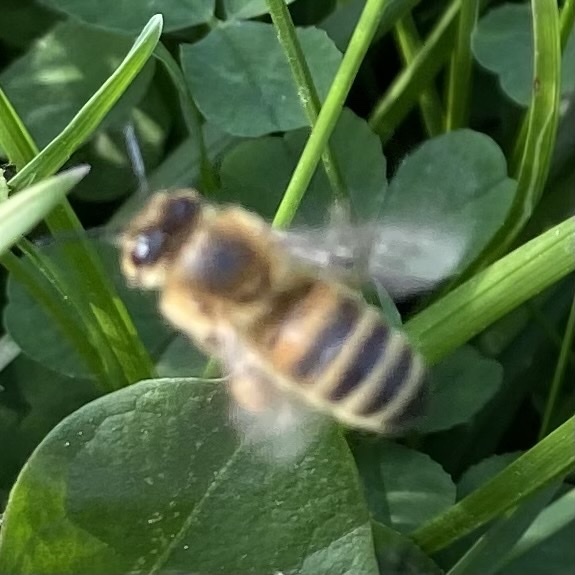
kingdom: Animalia
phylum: Arthropoda
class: Insecta
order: Hymenoptera
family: Apidae
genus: Apis
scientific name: Apis mellifera
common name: Honey bee
